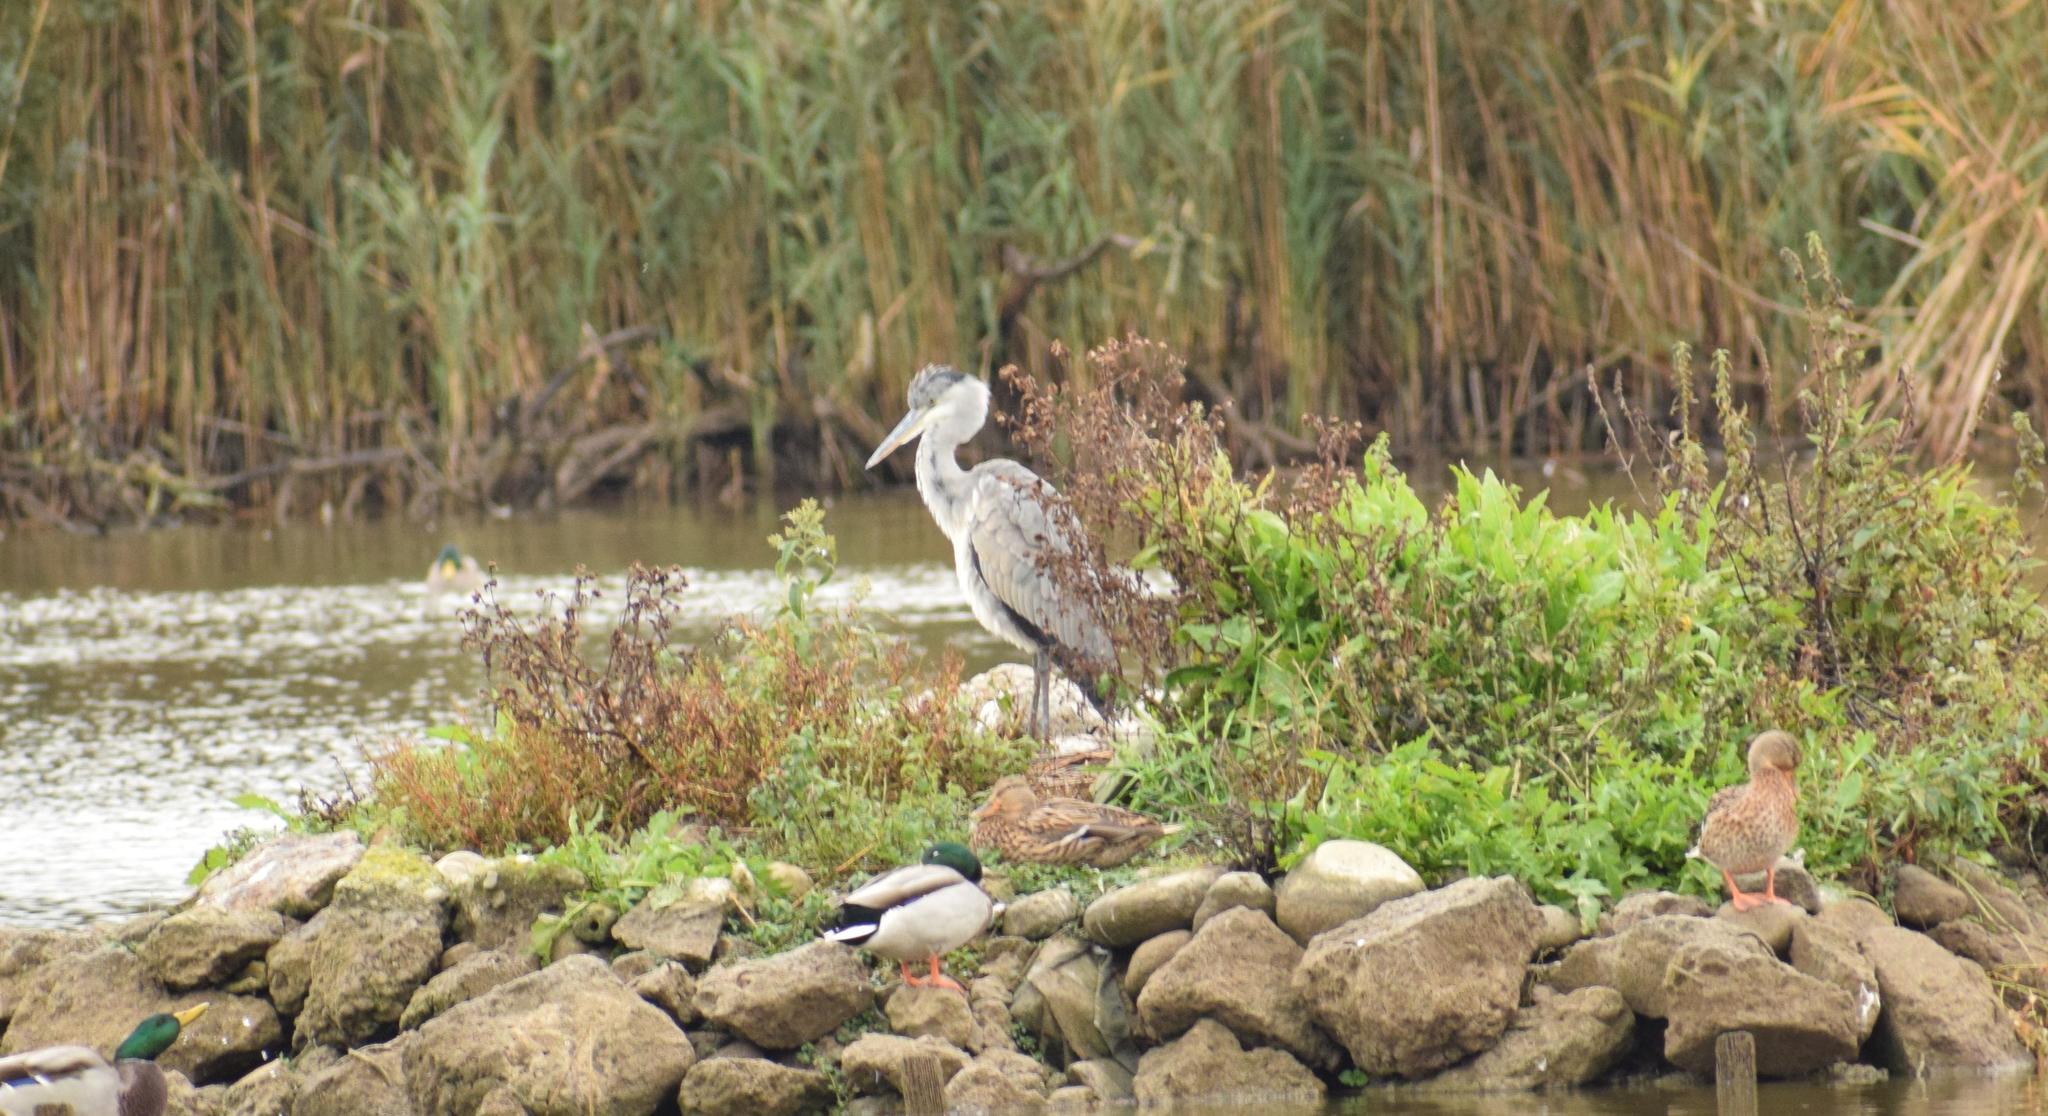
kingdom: Animalia
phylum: Chordata
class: Aves
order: Pelecaniformes
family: Ardeidae
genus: Ardea
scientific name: Ardea cinerea
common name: Grey heron
